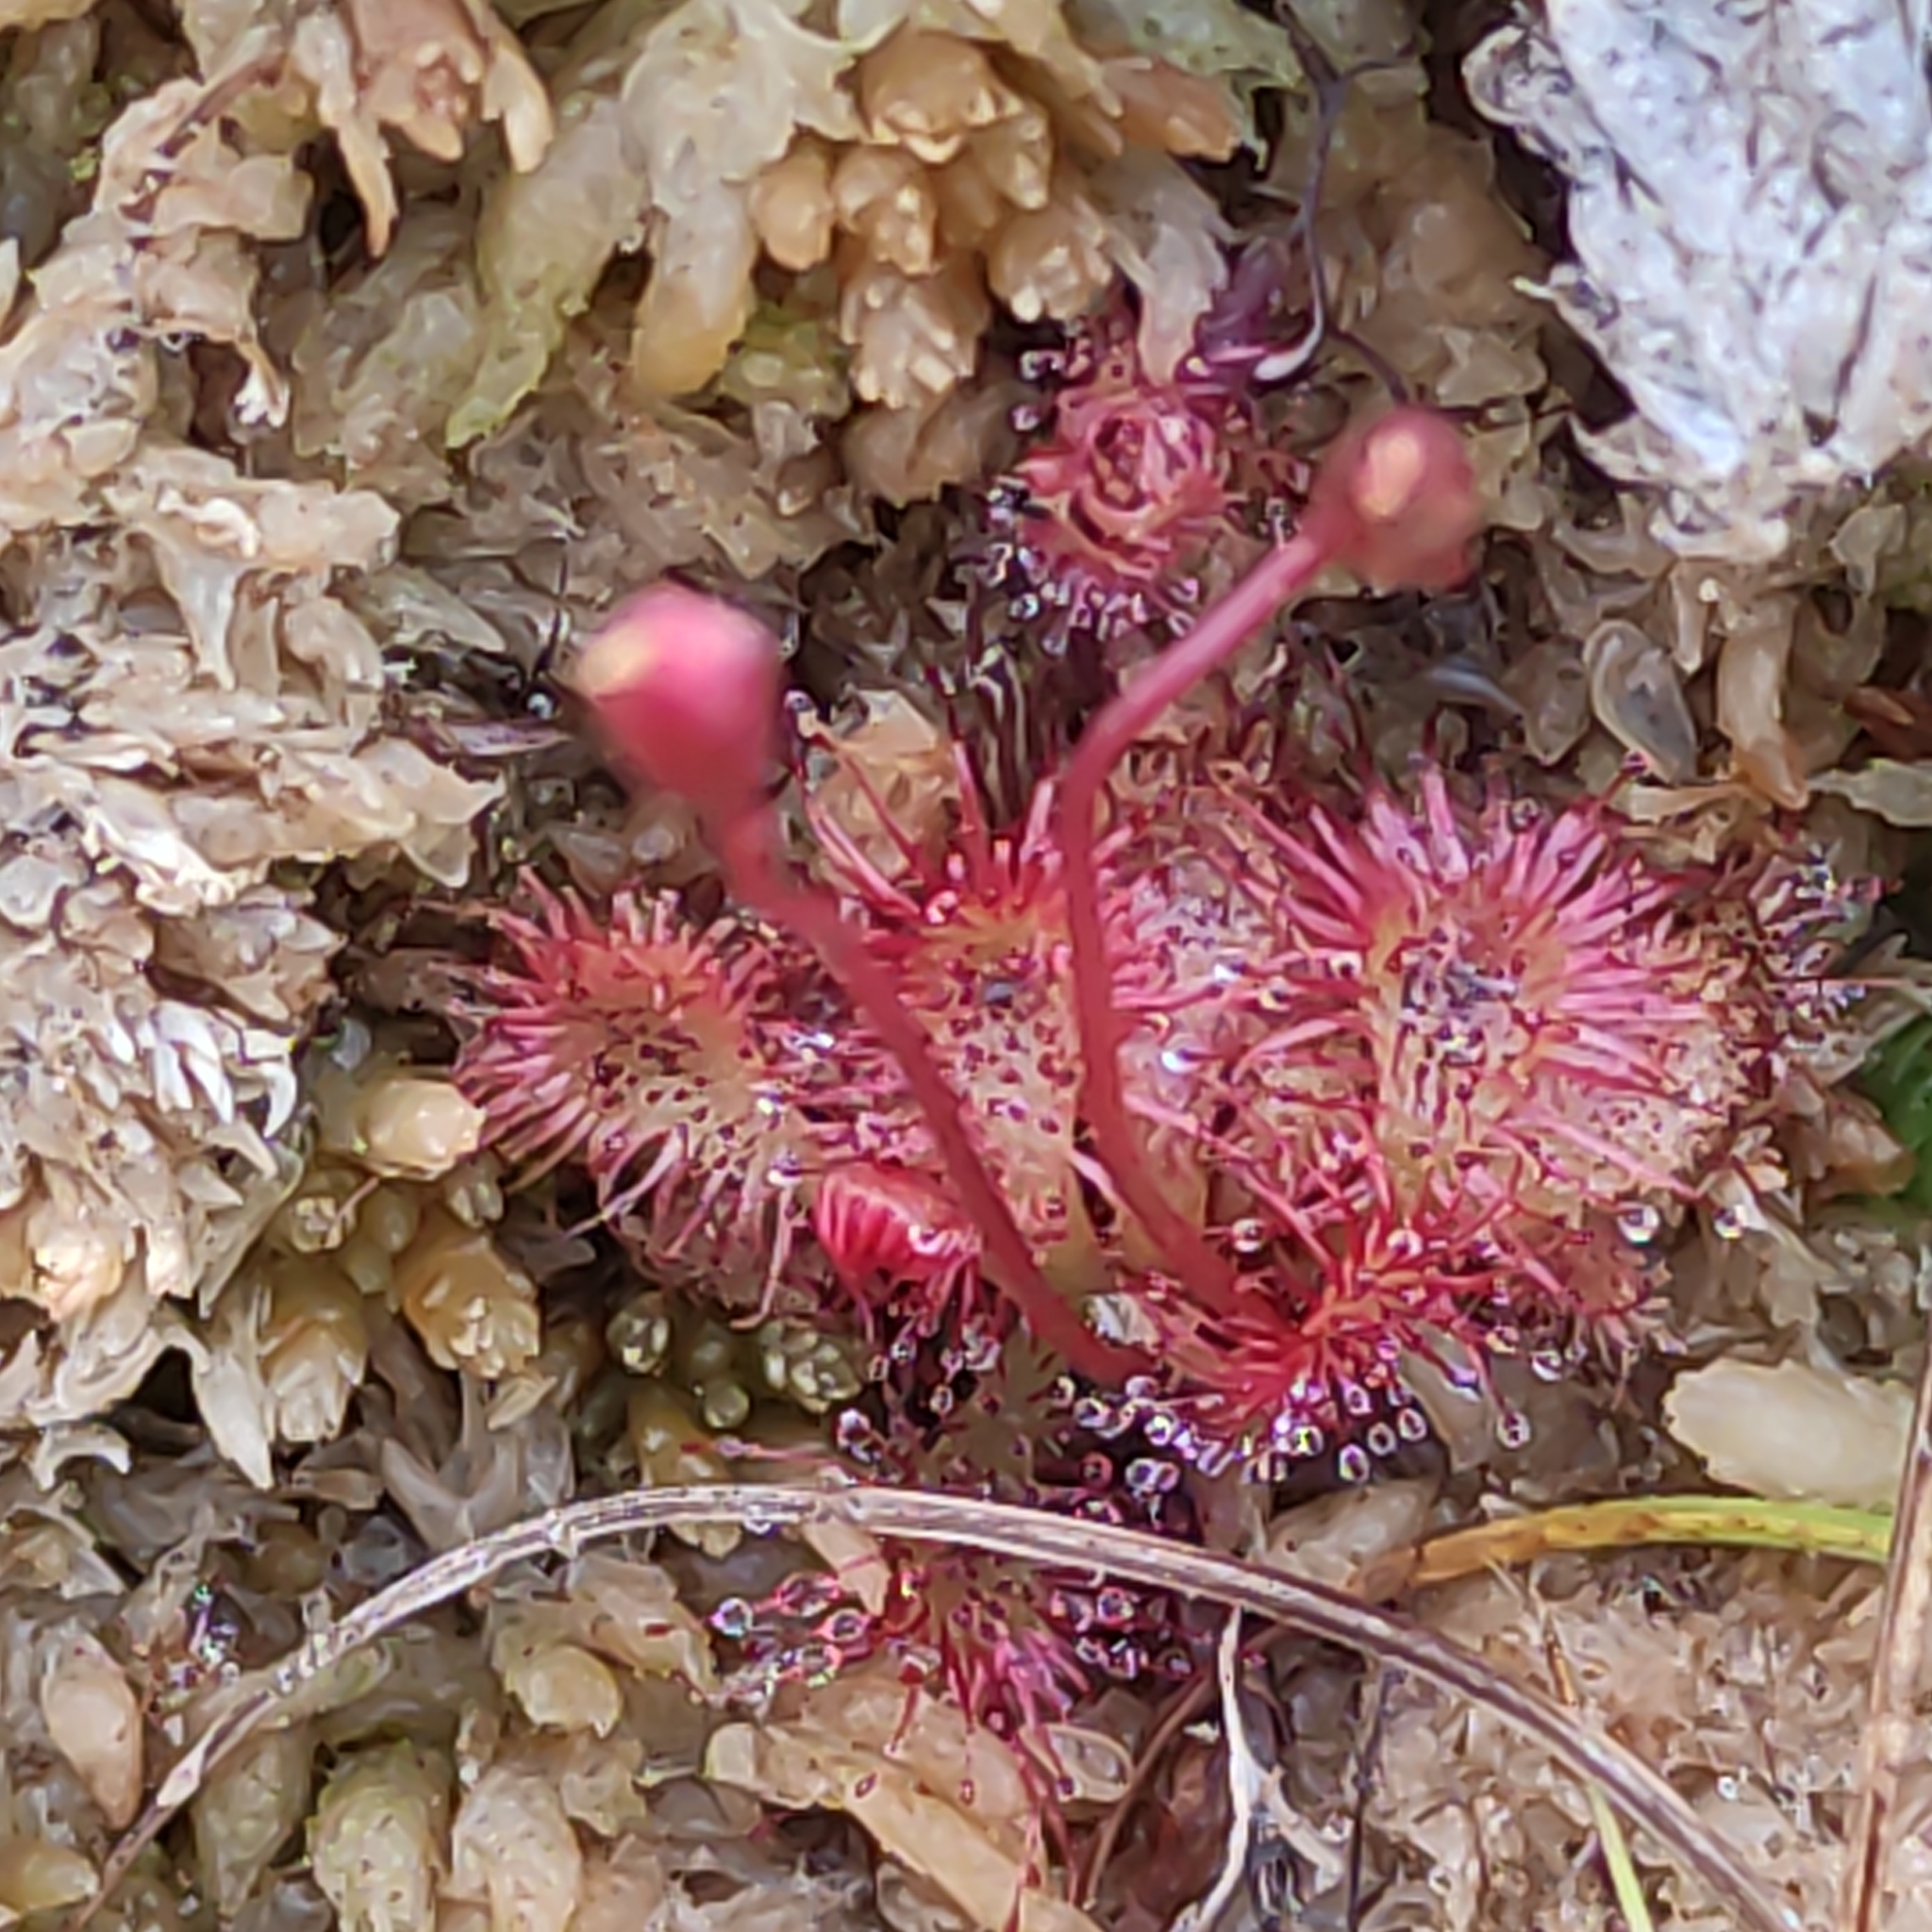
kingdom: Plantae
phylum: Tracheophyta
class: Magnoliopsida
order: Caryophyllales
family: Droseraceae
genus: Drosera
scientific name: Drosera spatulata
